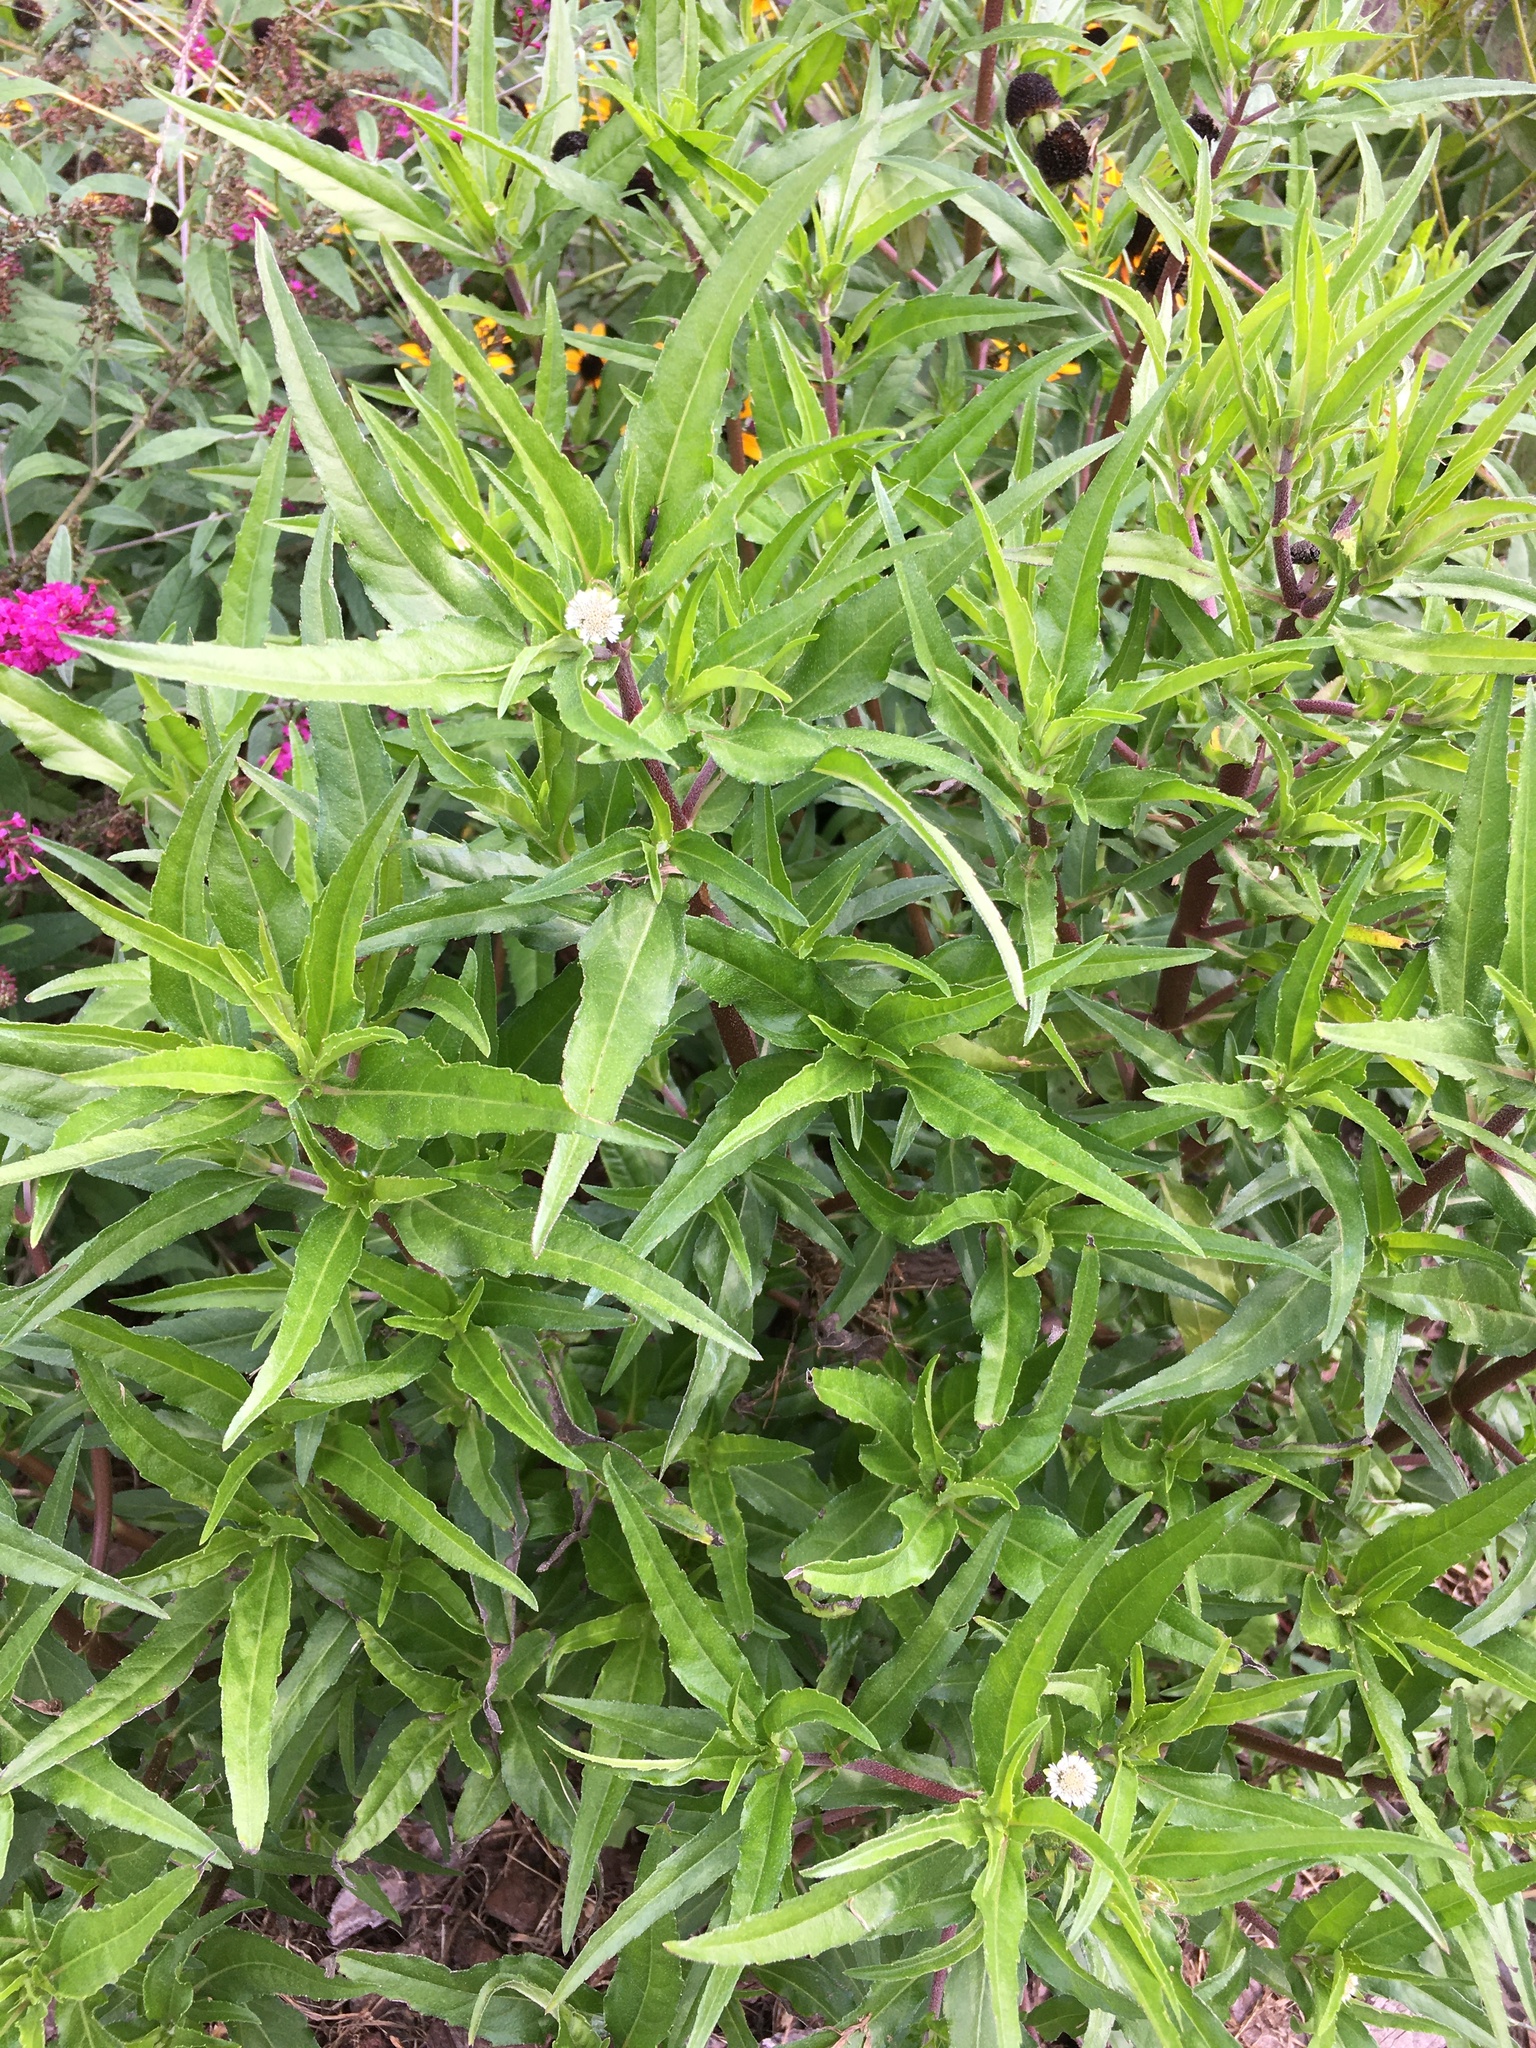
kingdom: Plantae
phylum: Tracheophyta
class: Magnoliopsida
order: Asterales
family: Asteraceae
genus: Eclipta
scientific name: Eclipta prostrata
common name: False daisy
